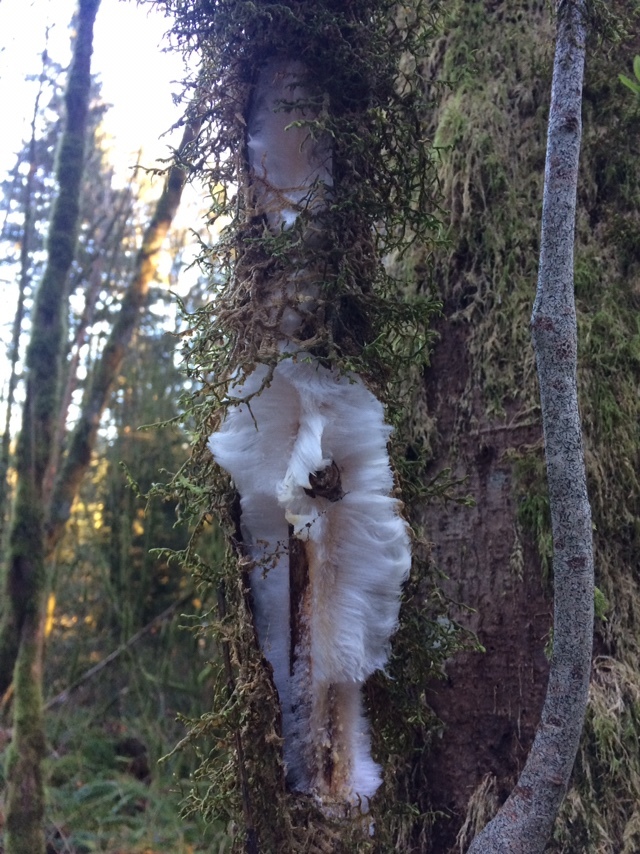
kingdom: Fungi
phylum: Basidiomycota
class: Agaricomycetes
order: Auriculariales
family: Auriculariaceae
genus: Exidiopsis
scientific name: Exidiopsis effusa
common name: Hair ice crust
